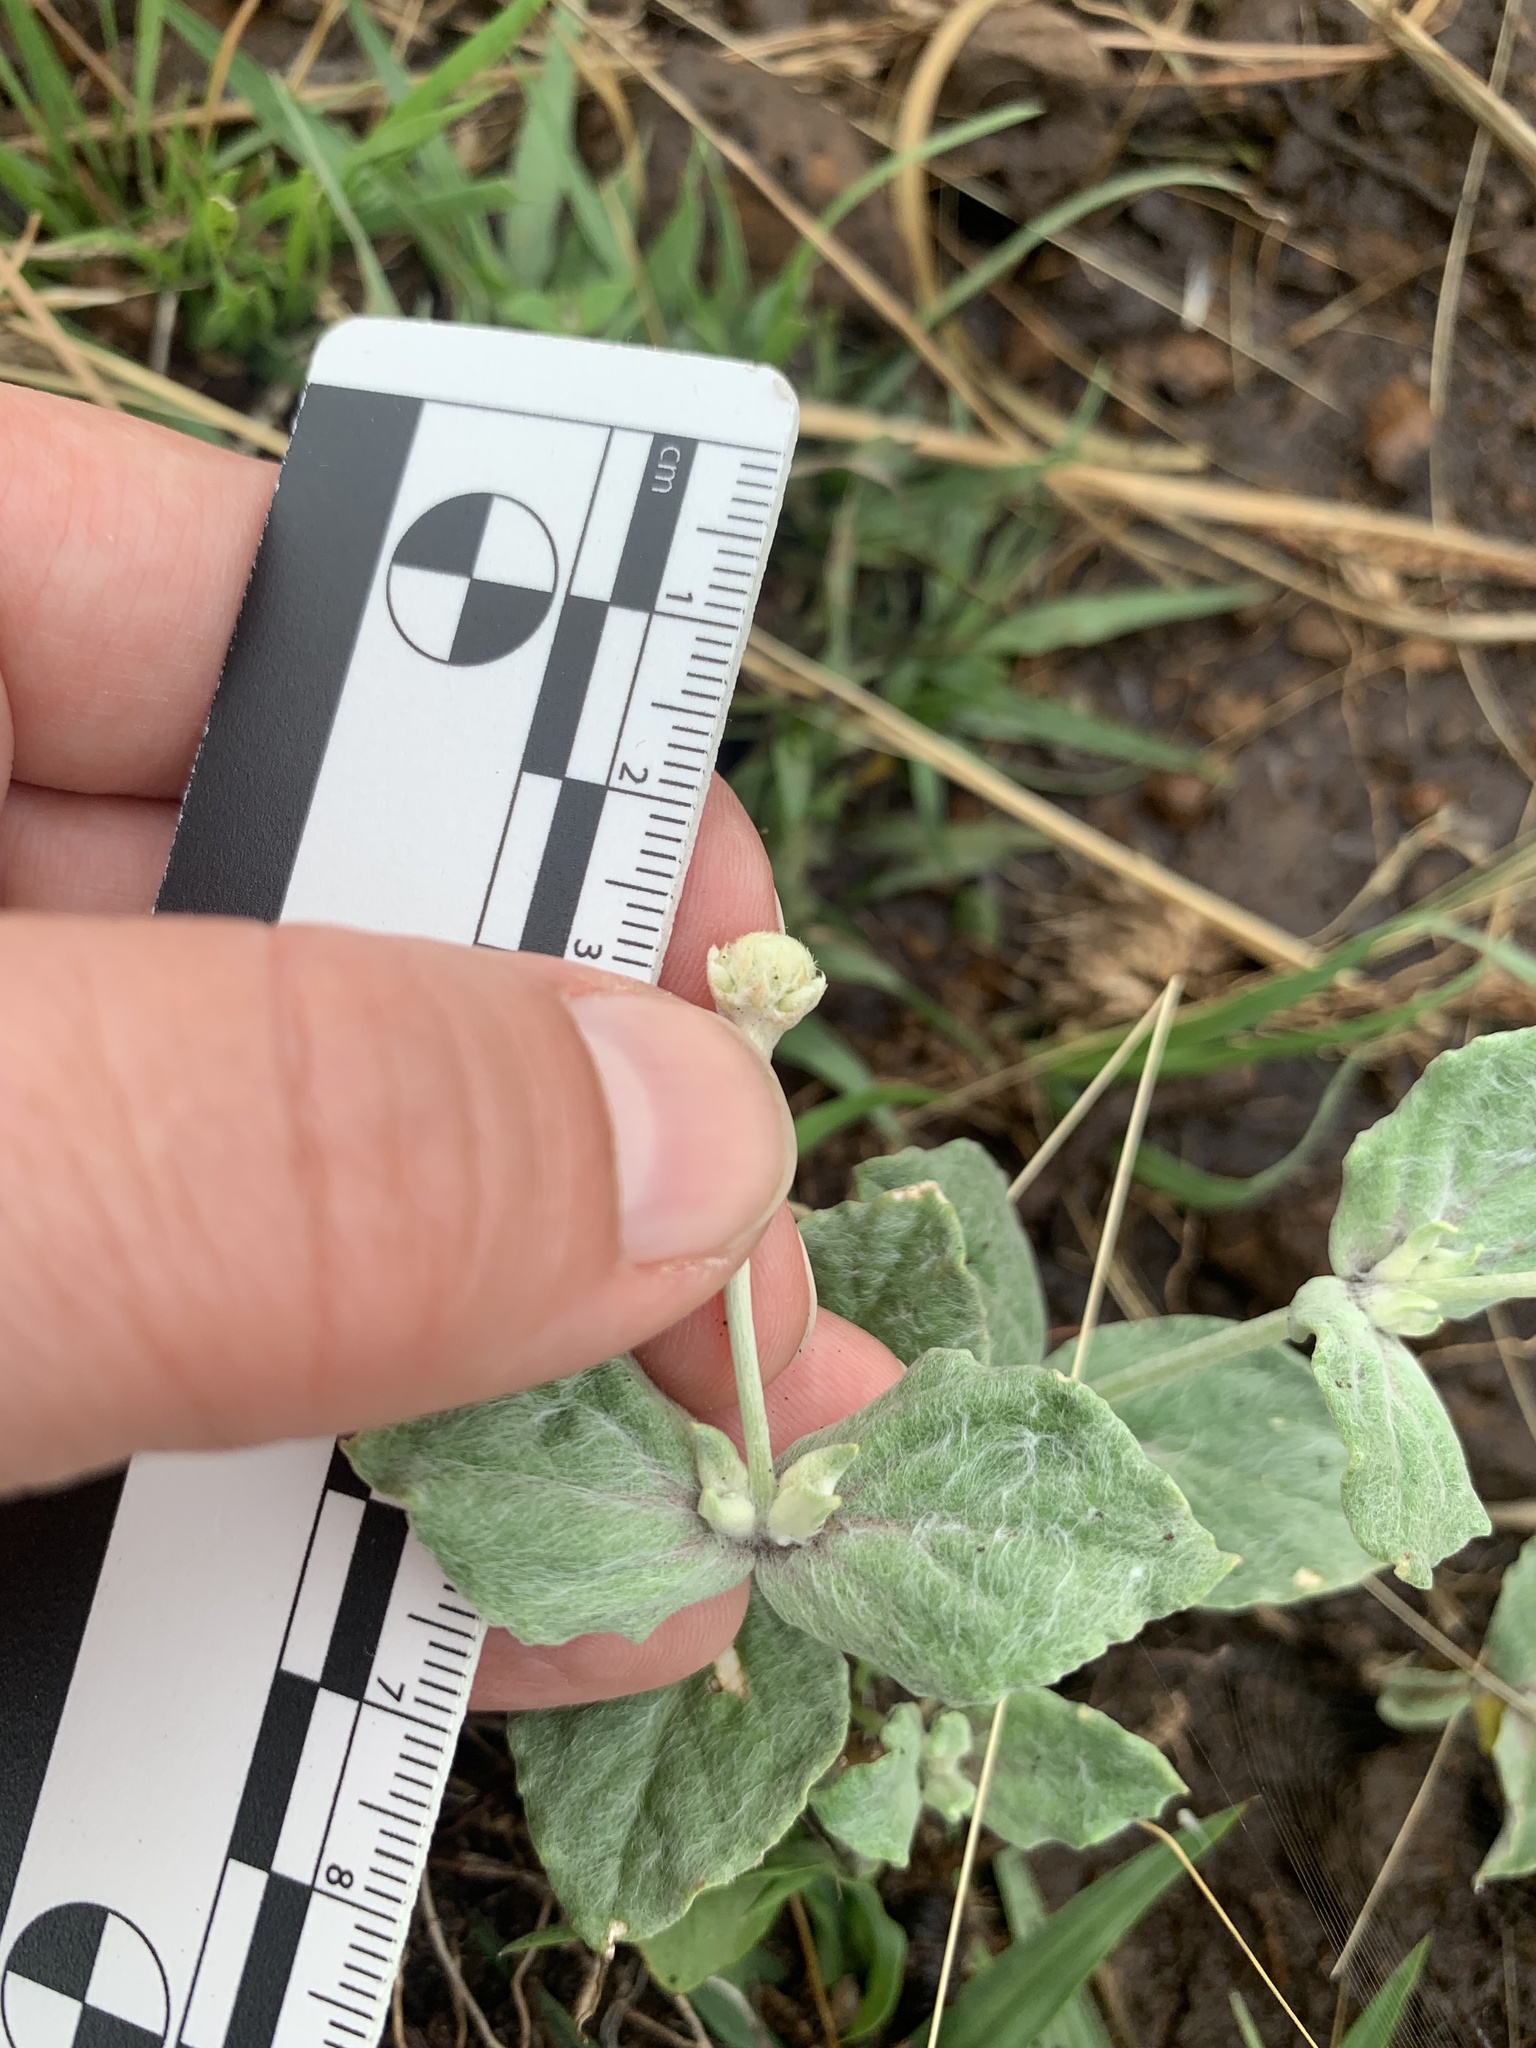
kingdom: Plantae
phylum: Tracheophyta
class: Magnoliopsida
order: Caryophyllales
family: Amaranthaceae
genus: Pfaffia
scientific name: Pfaffia gnaphalioides
